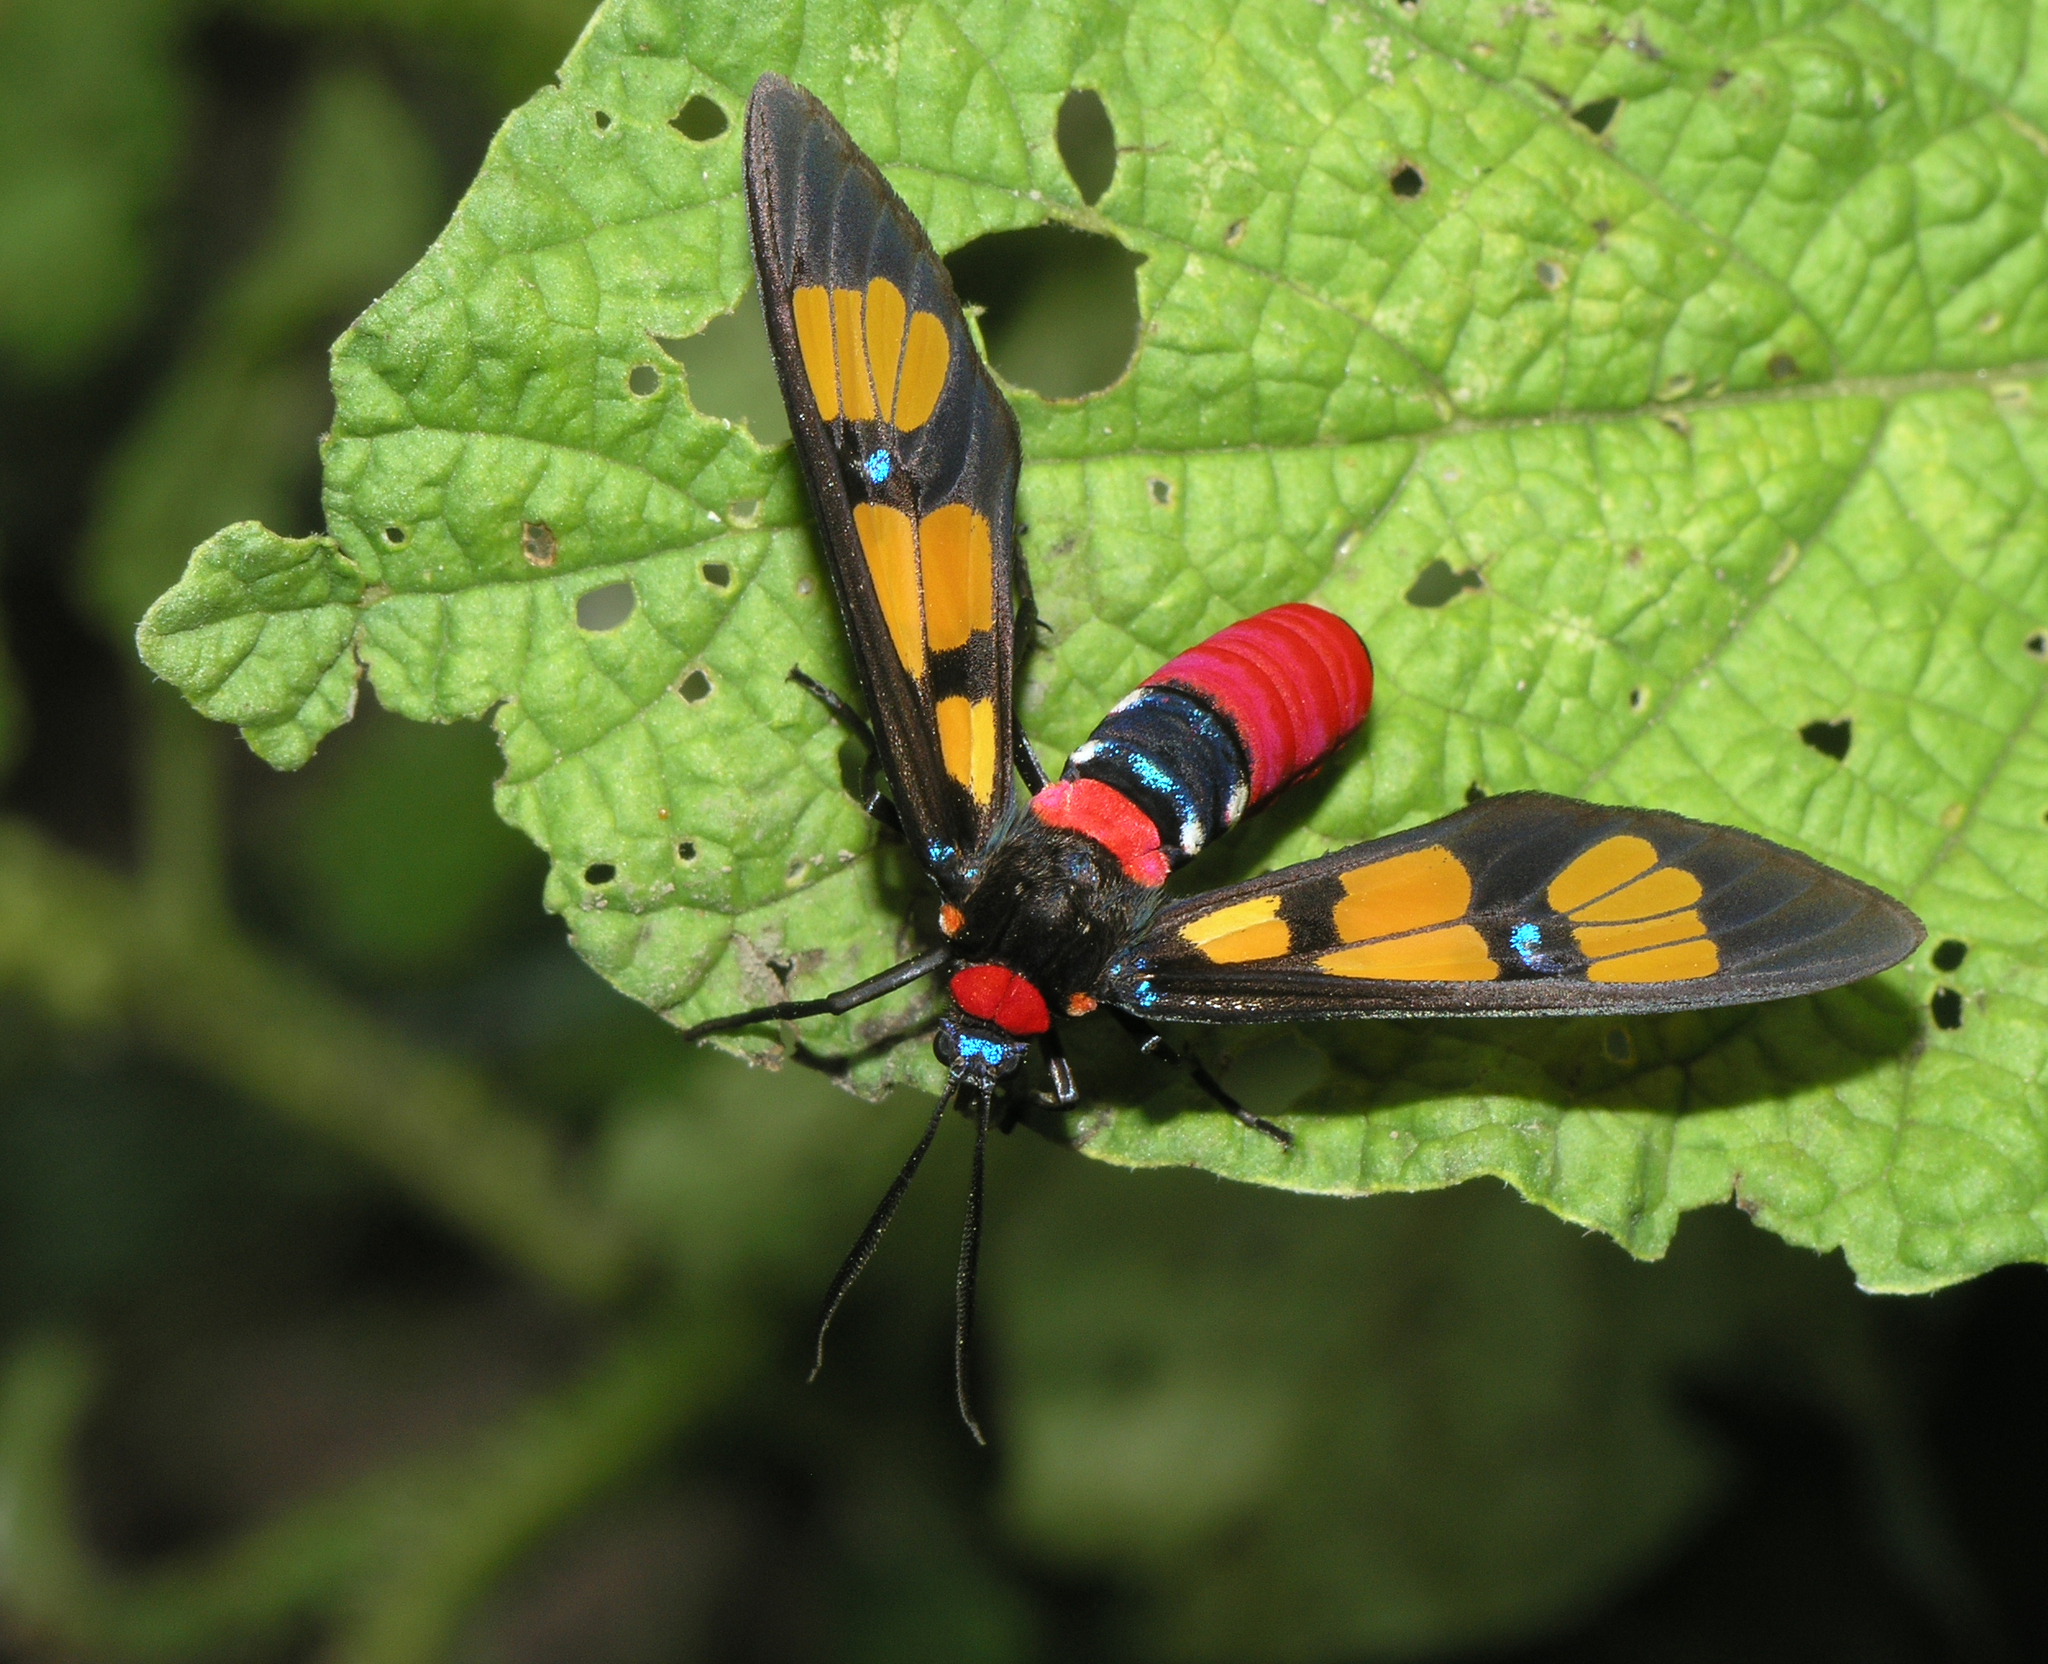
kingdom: Animalia
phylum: Arthropoda
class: Insecta
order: Lepidoptera
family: Erebidae
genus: Euchromia
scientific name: Euchromia polymena
